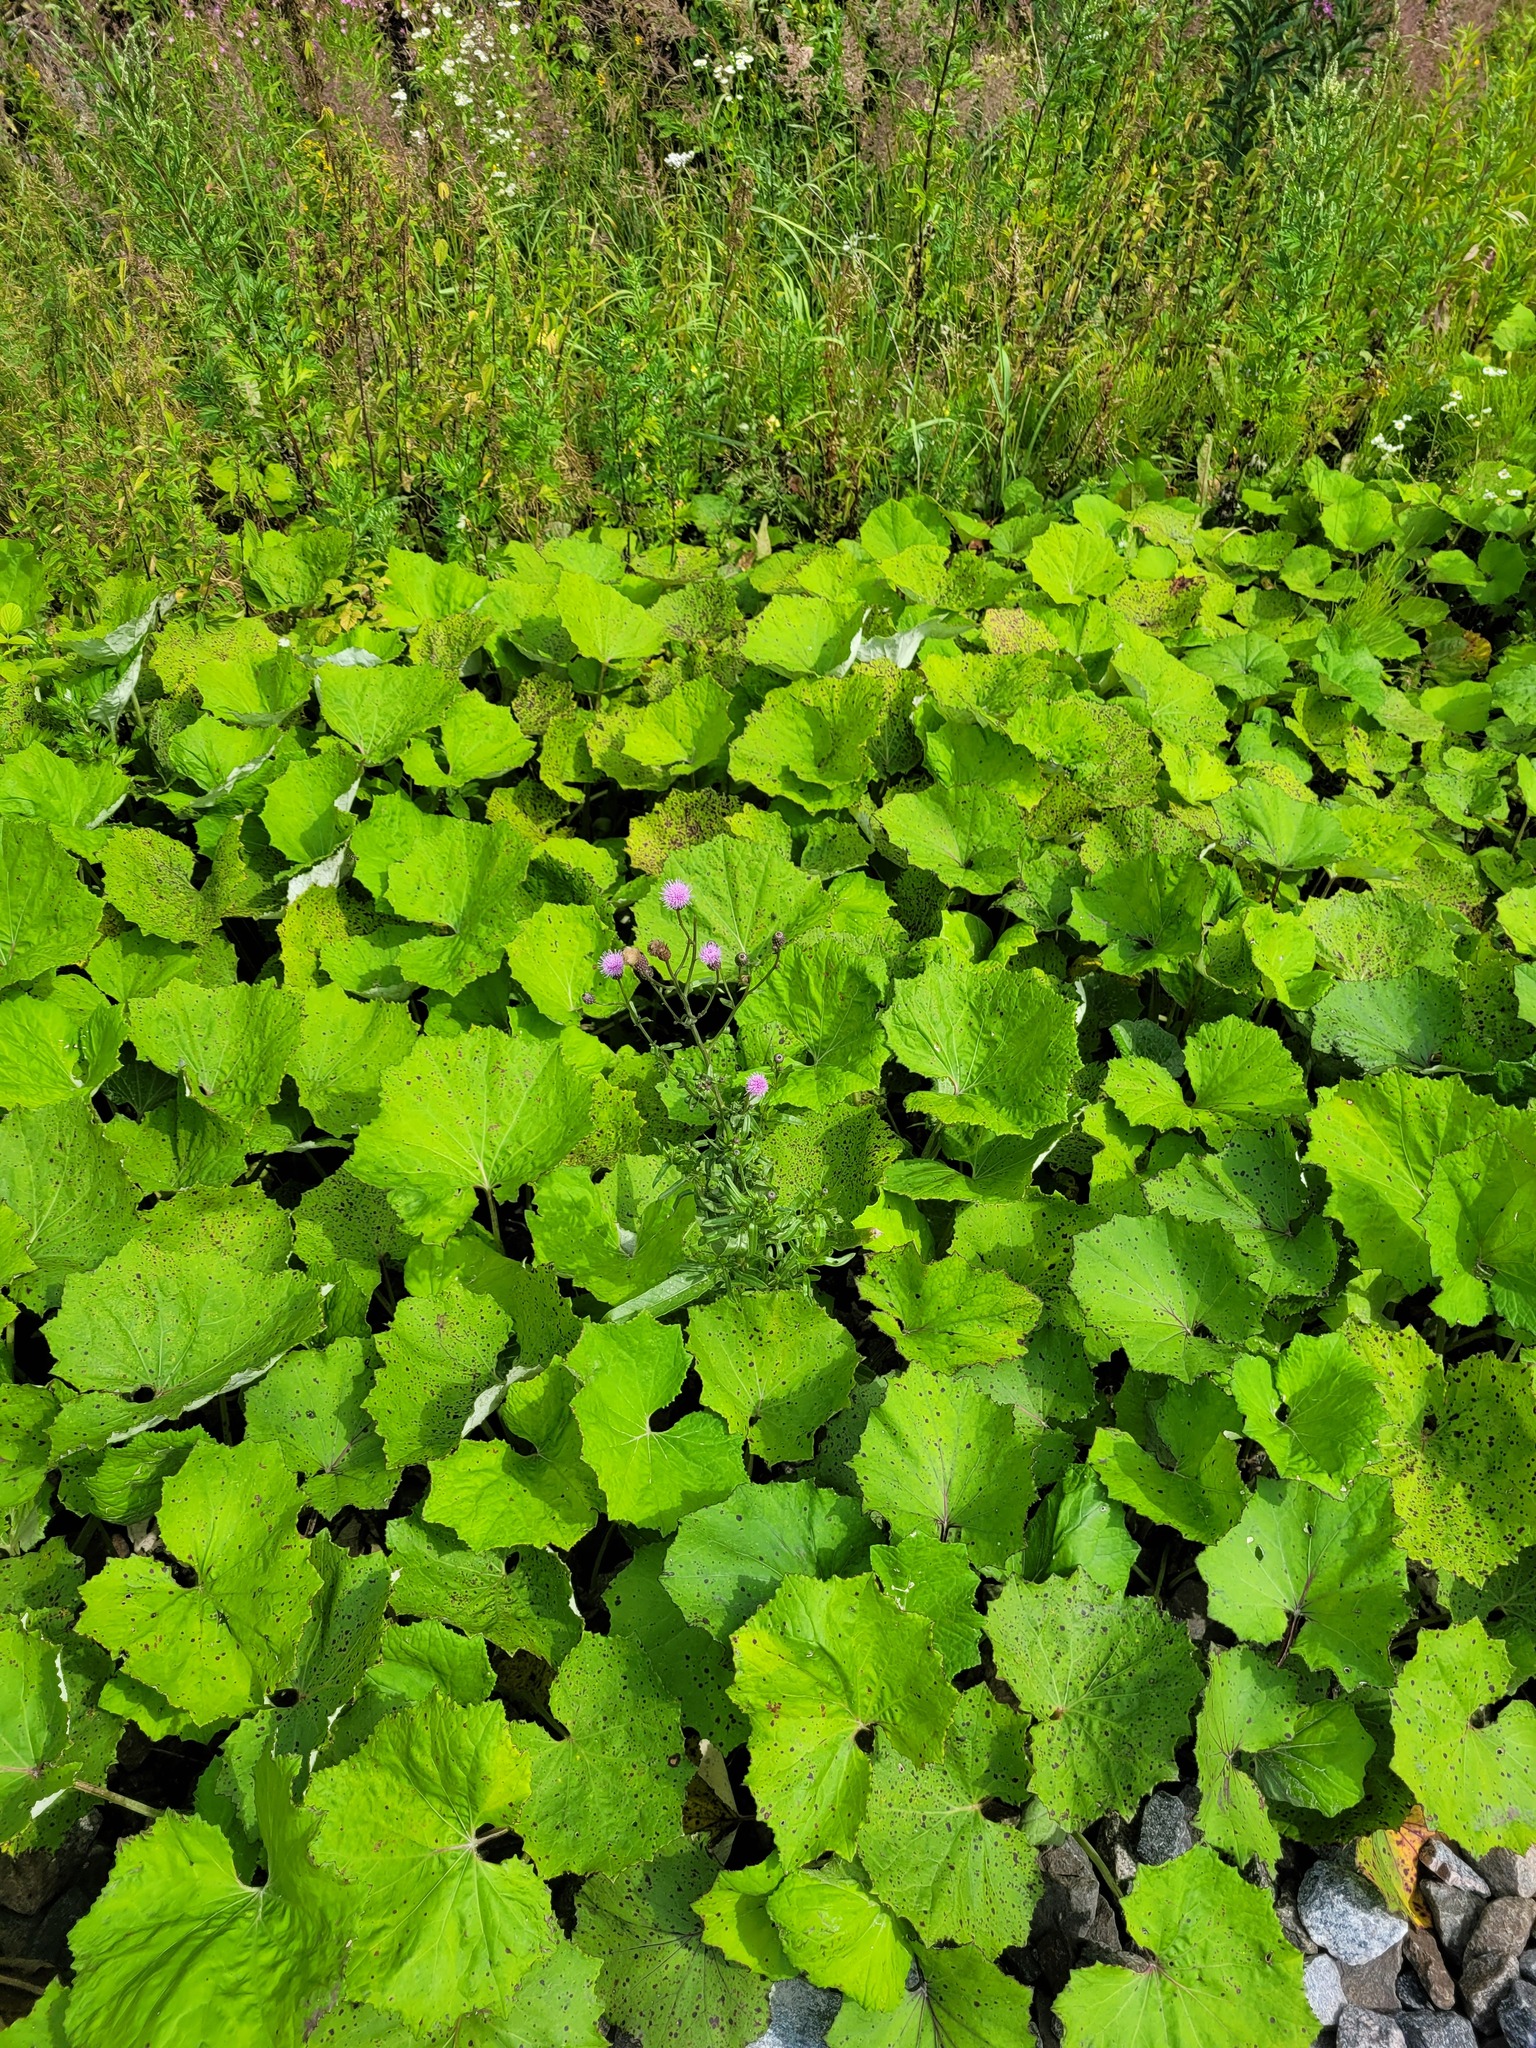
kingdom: Plantae
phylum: Tracheophyta
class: Magnoliopsida
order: Asterales
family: Asteraceae
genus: Cirsium
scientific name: Cirsium arvense
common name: Creeping thistle
